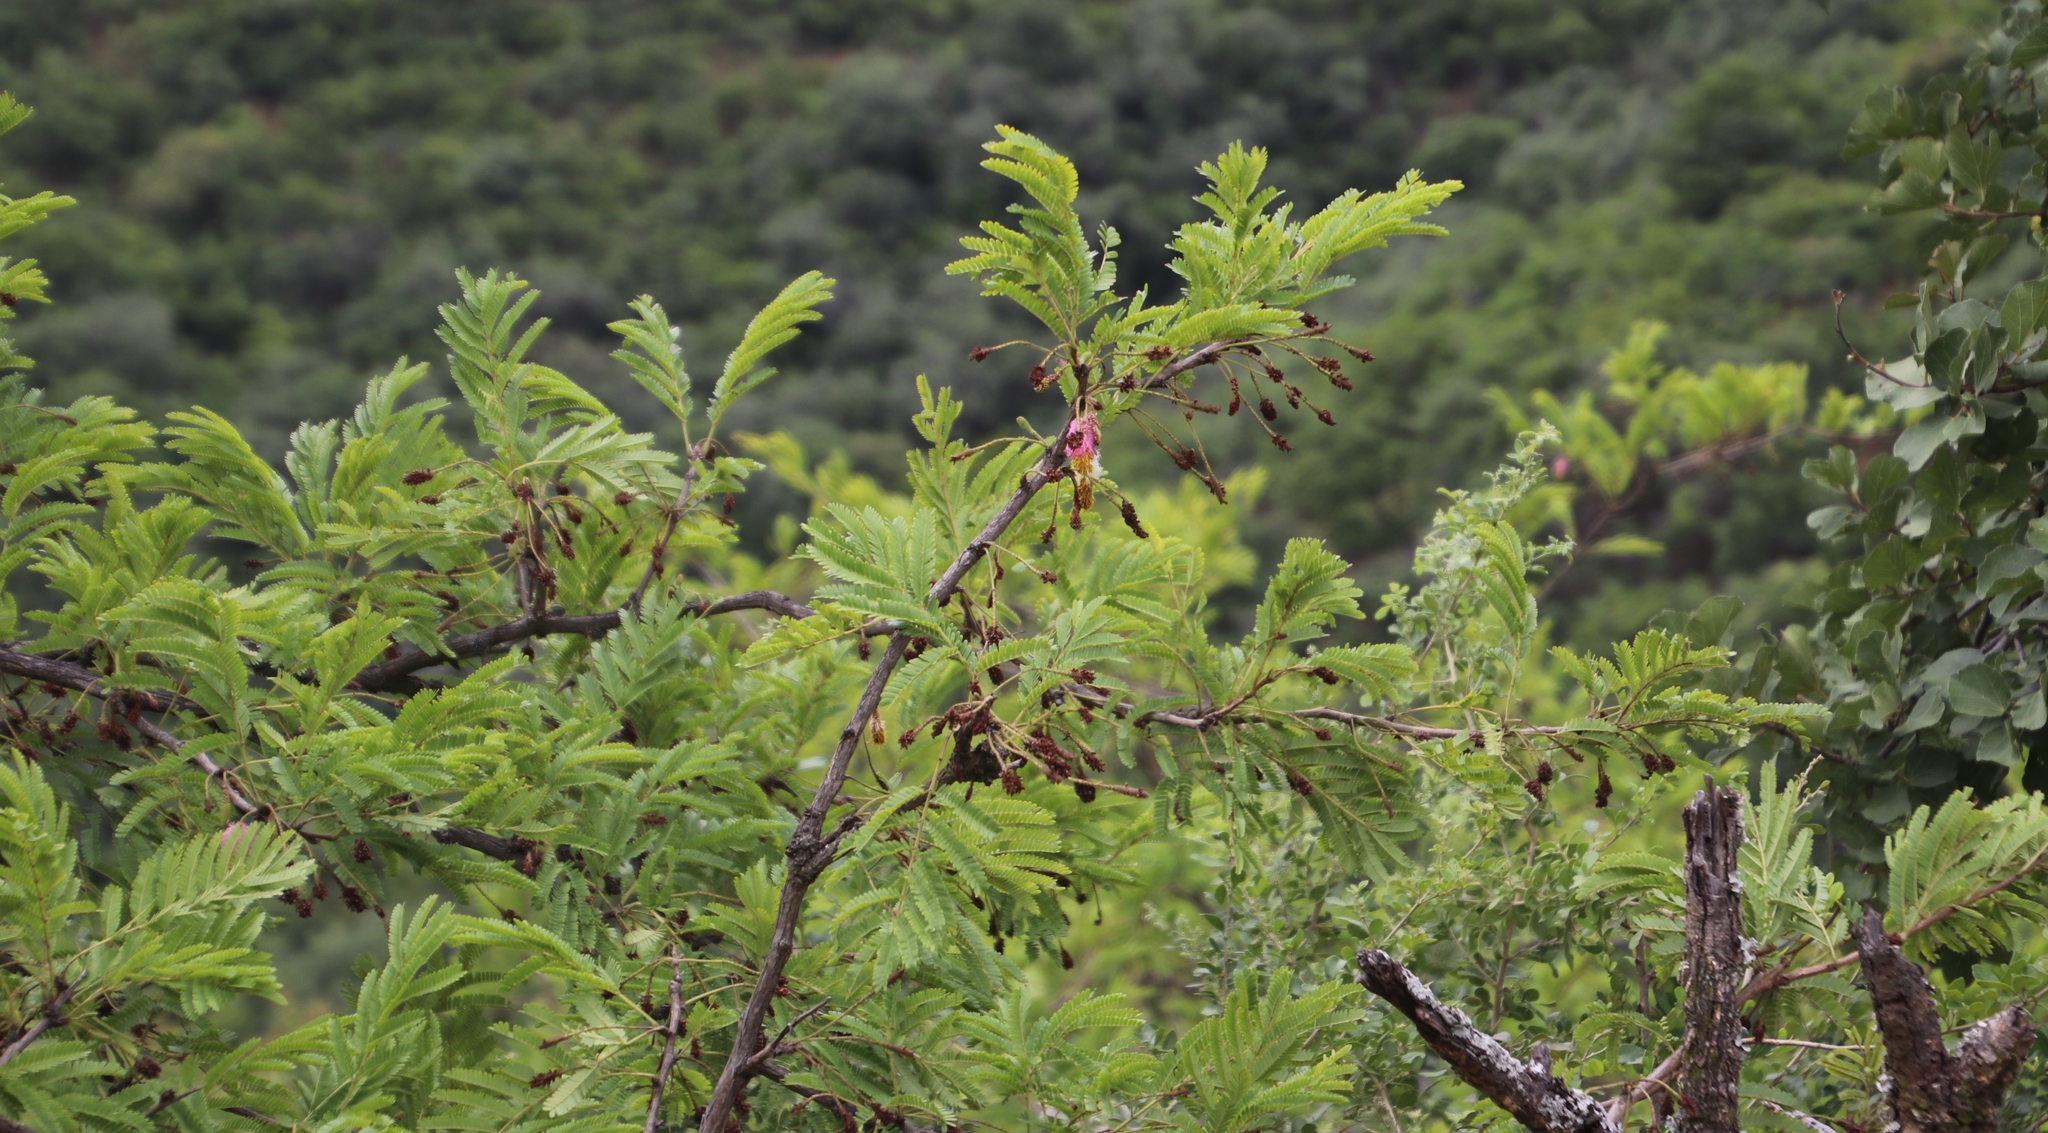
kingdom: Plantae
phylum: Tracheophyta
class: Magnoliopsida
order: Fabales
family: Fabaceae
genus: Dichrostachys
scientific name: Dichrostachys cinerea
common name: Sicklebush
